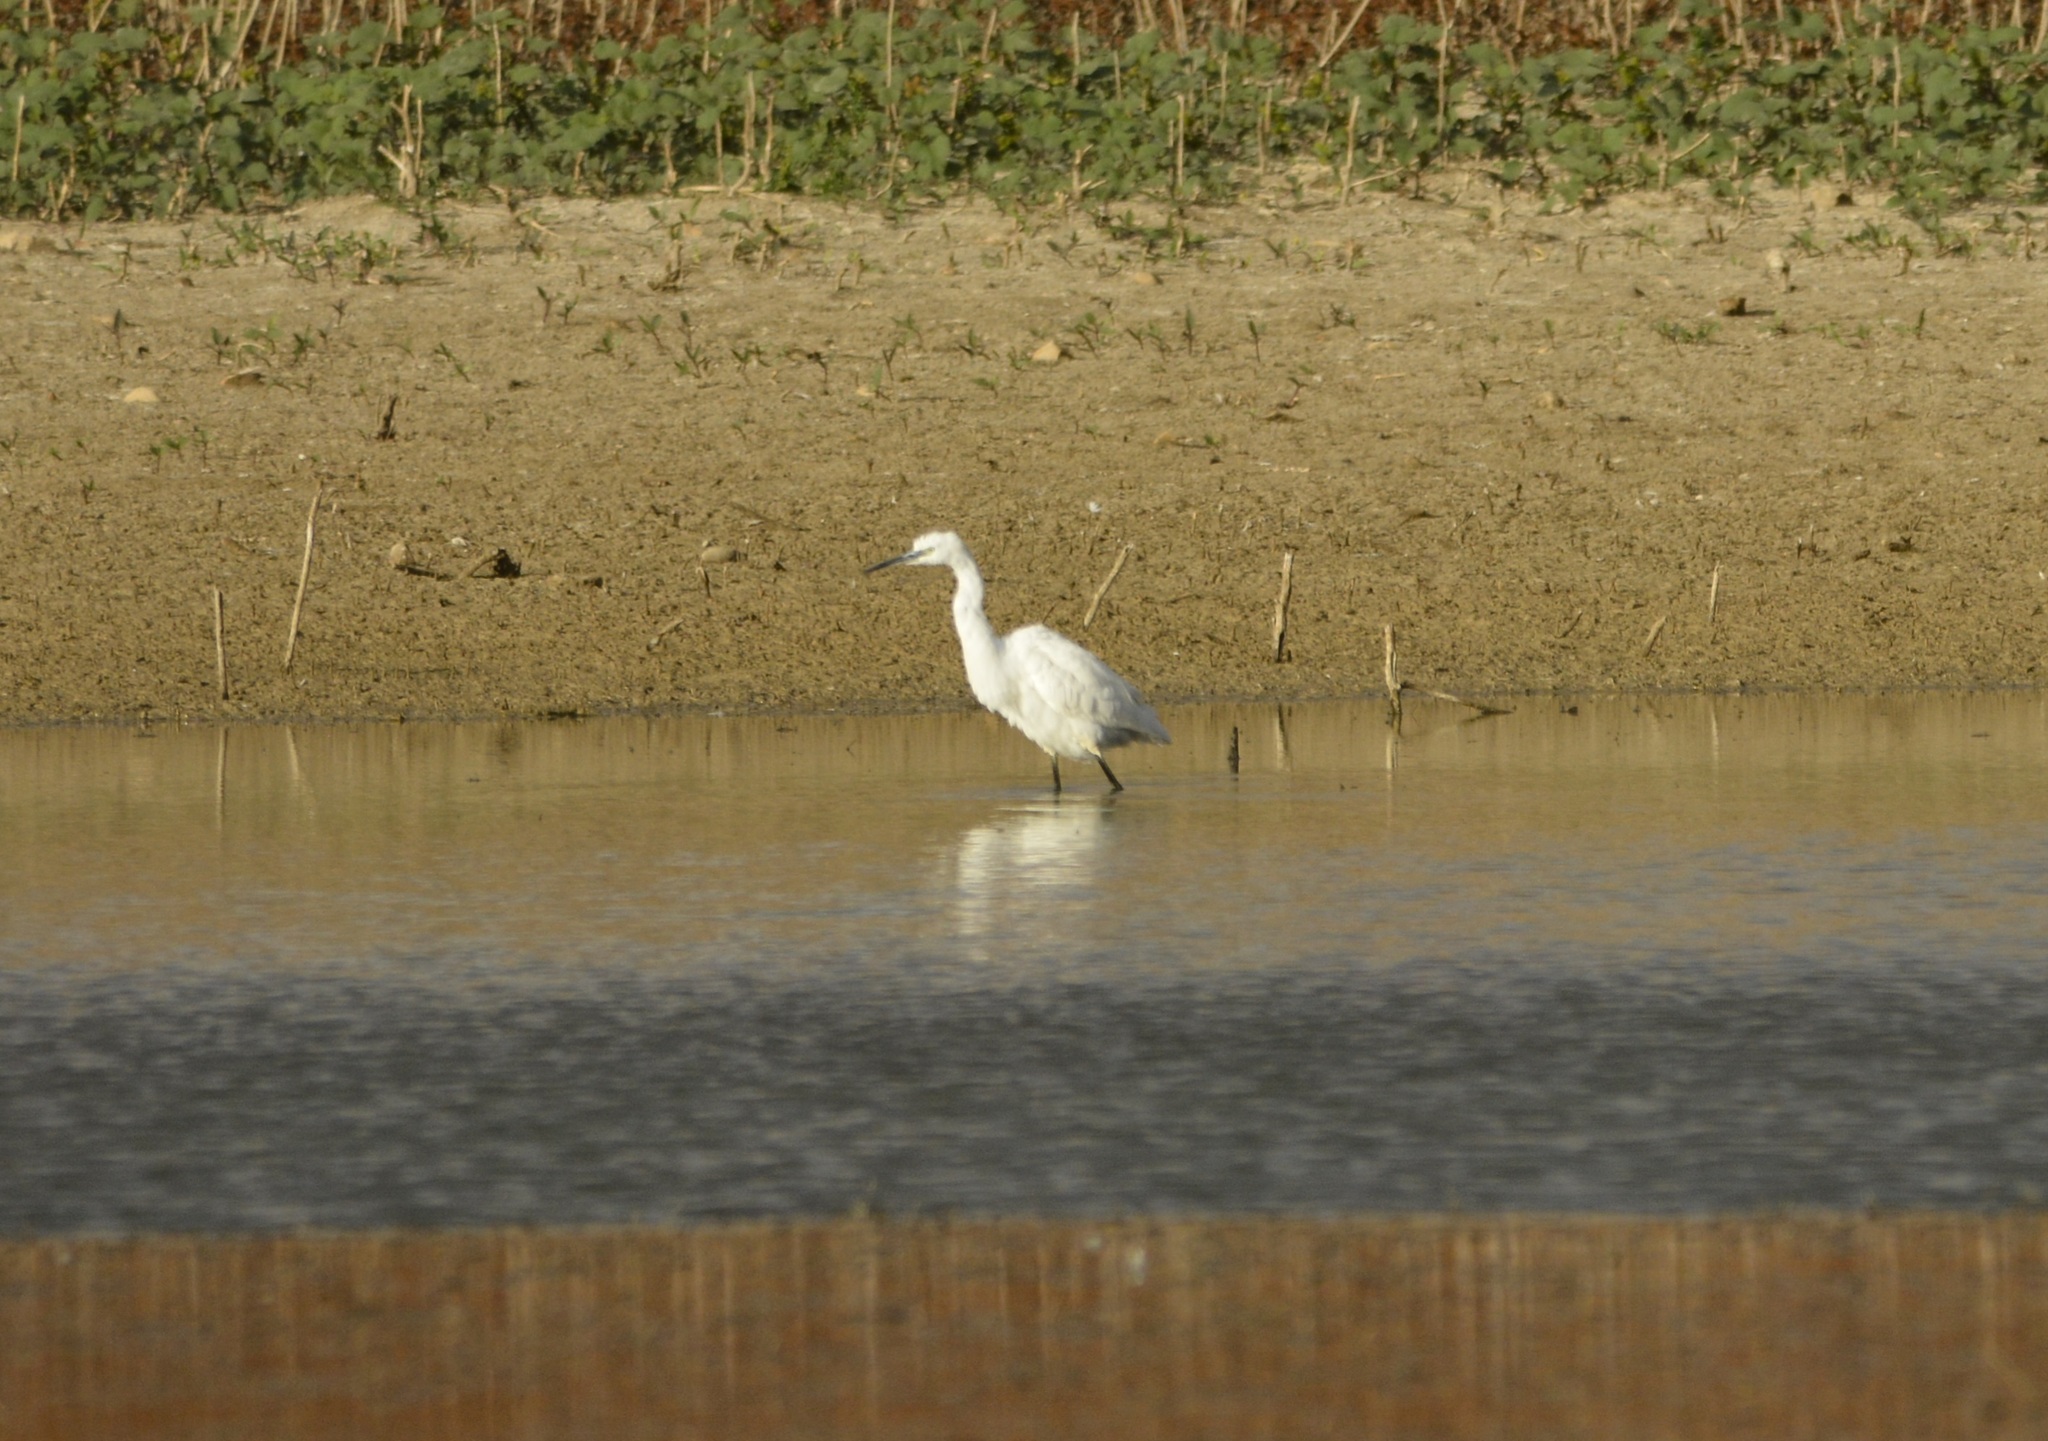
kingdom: Animalia
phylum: Chordata
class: Aves
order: Pelecaniformes
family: Ardeidae
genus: Egretta
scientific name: Egretta garzetta
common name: Little egret
